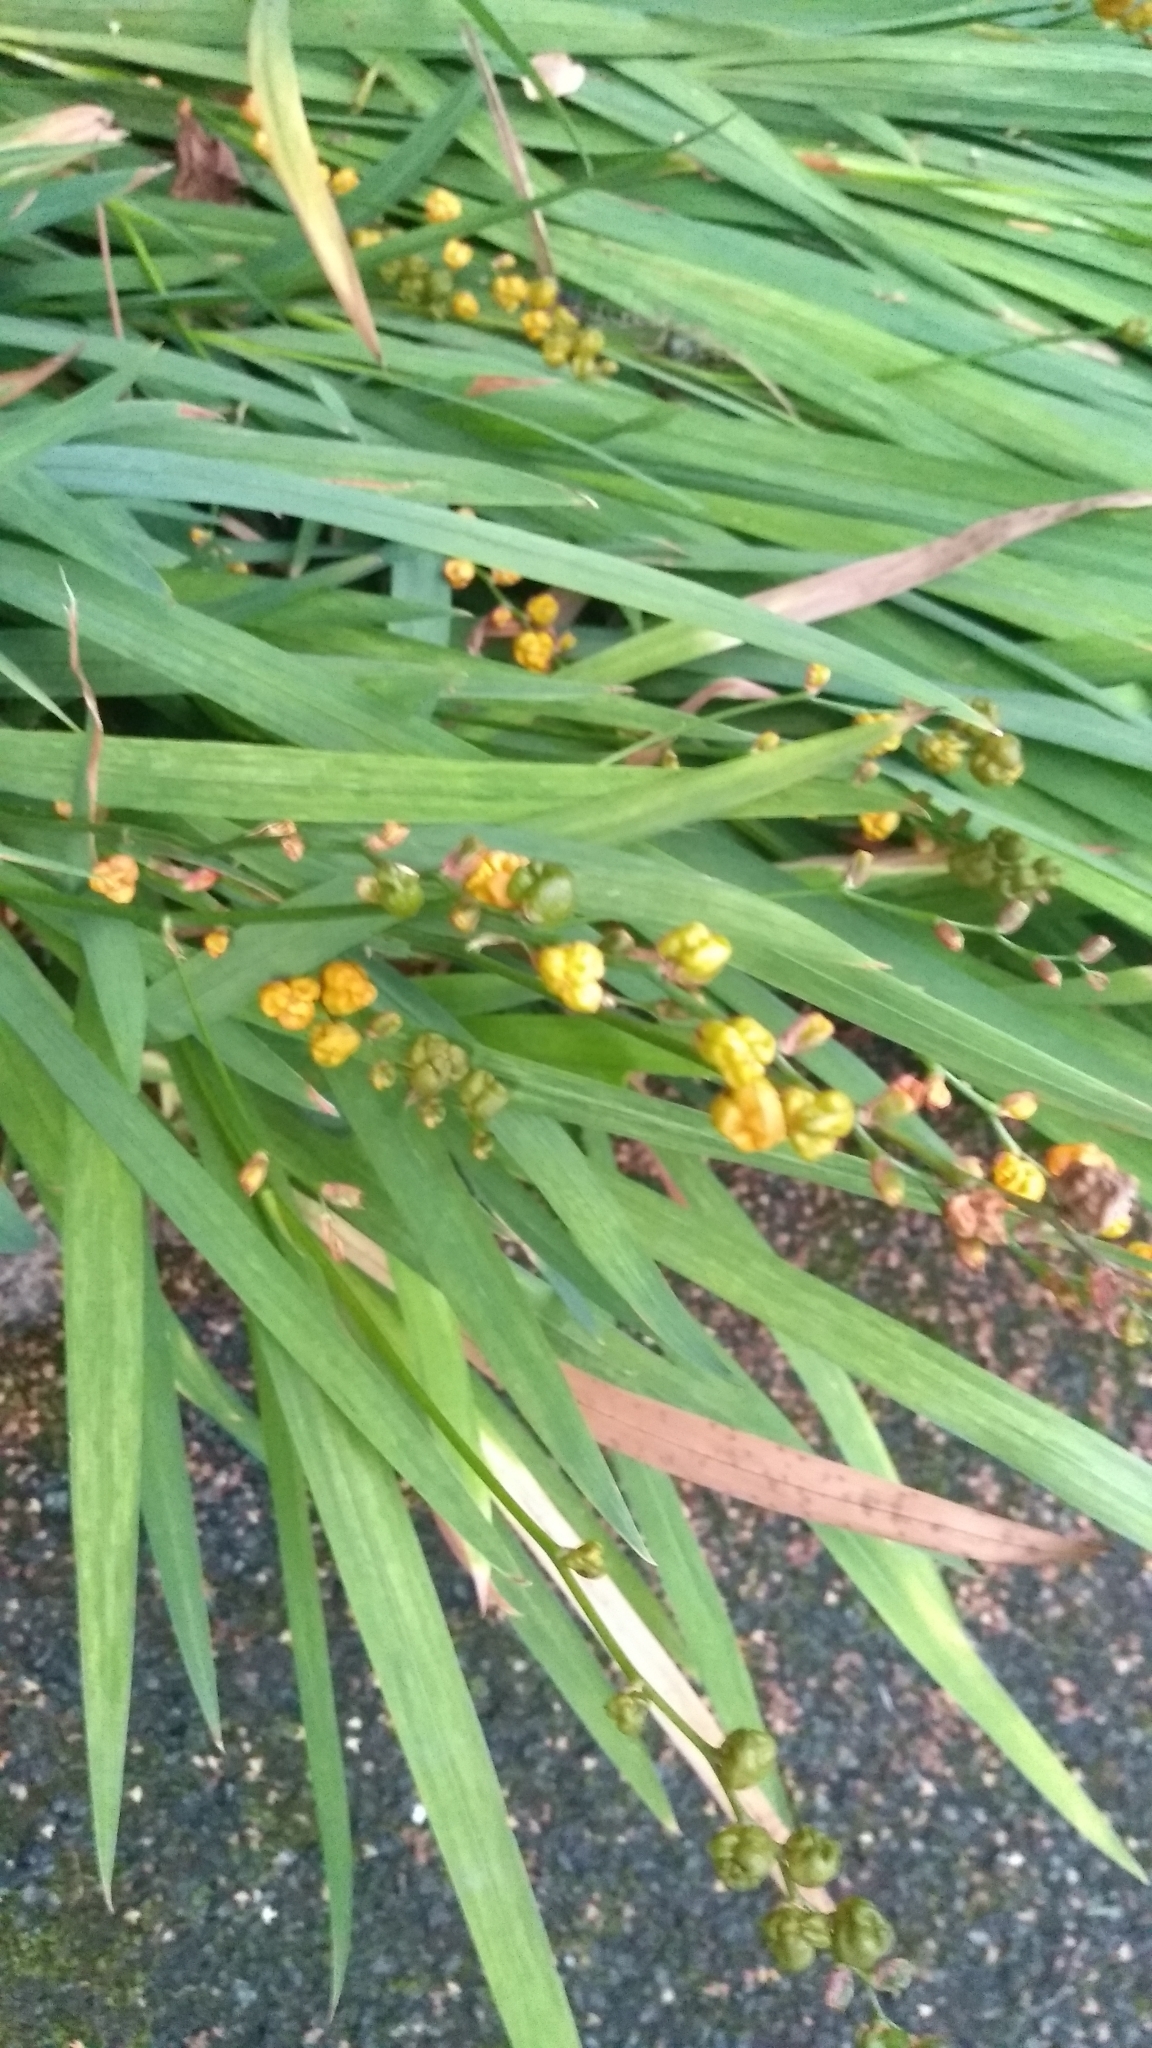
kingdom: Plantae
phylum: Tracheophyta
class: Liliopsida
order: Asparagales
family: Iridaceae
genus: Crocosmia
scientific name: Crocosmia crocosmiiflora
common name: Montbretia
